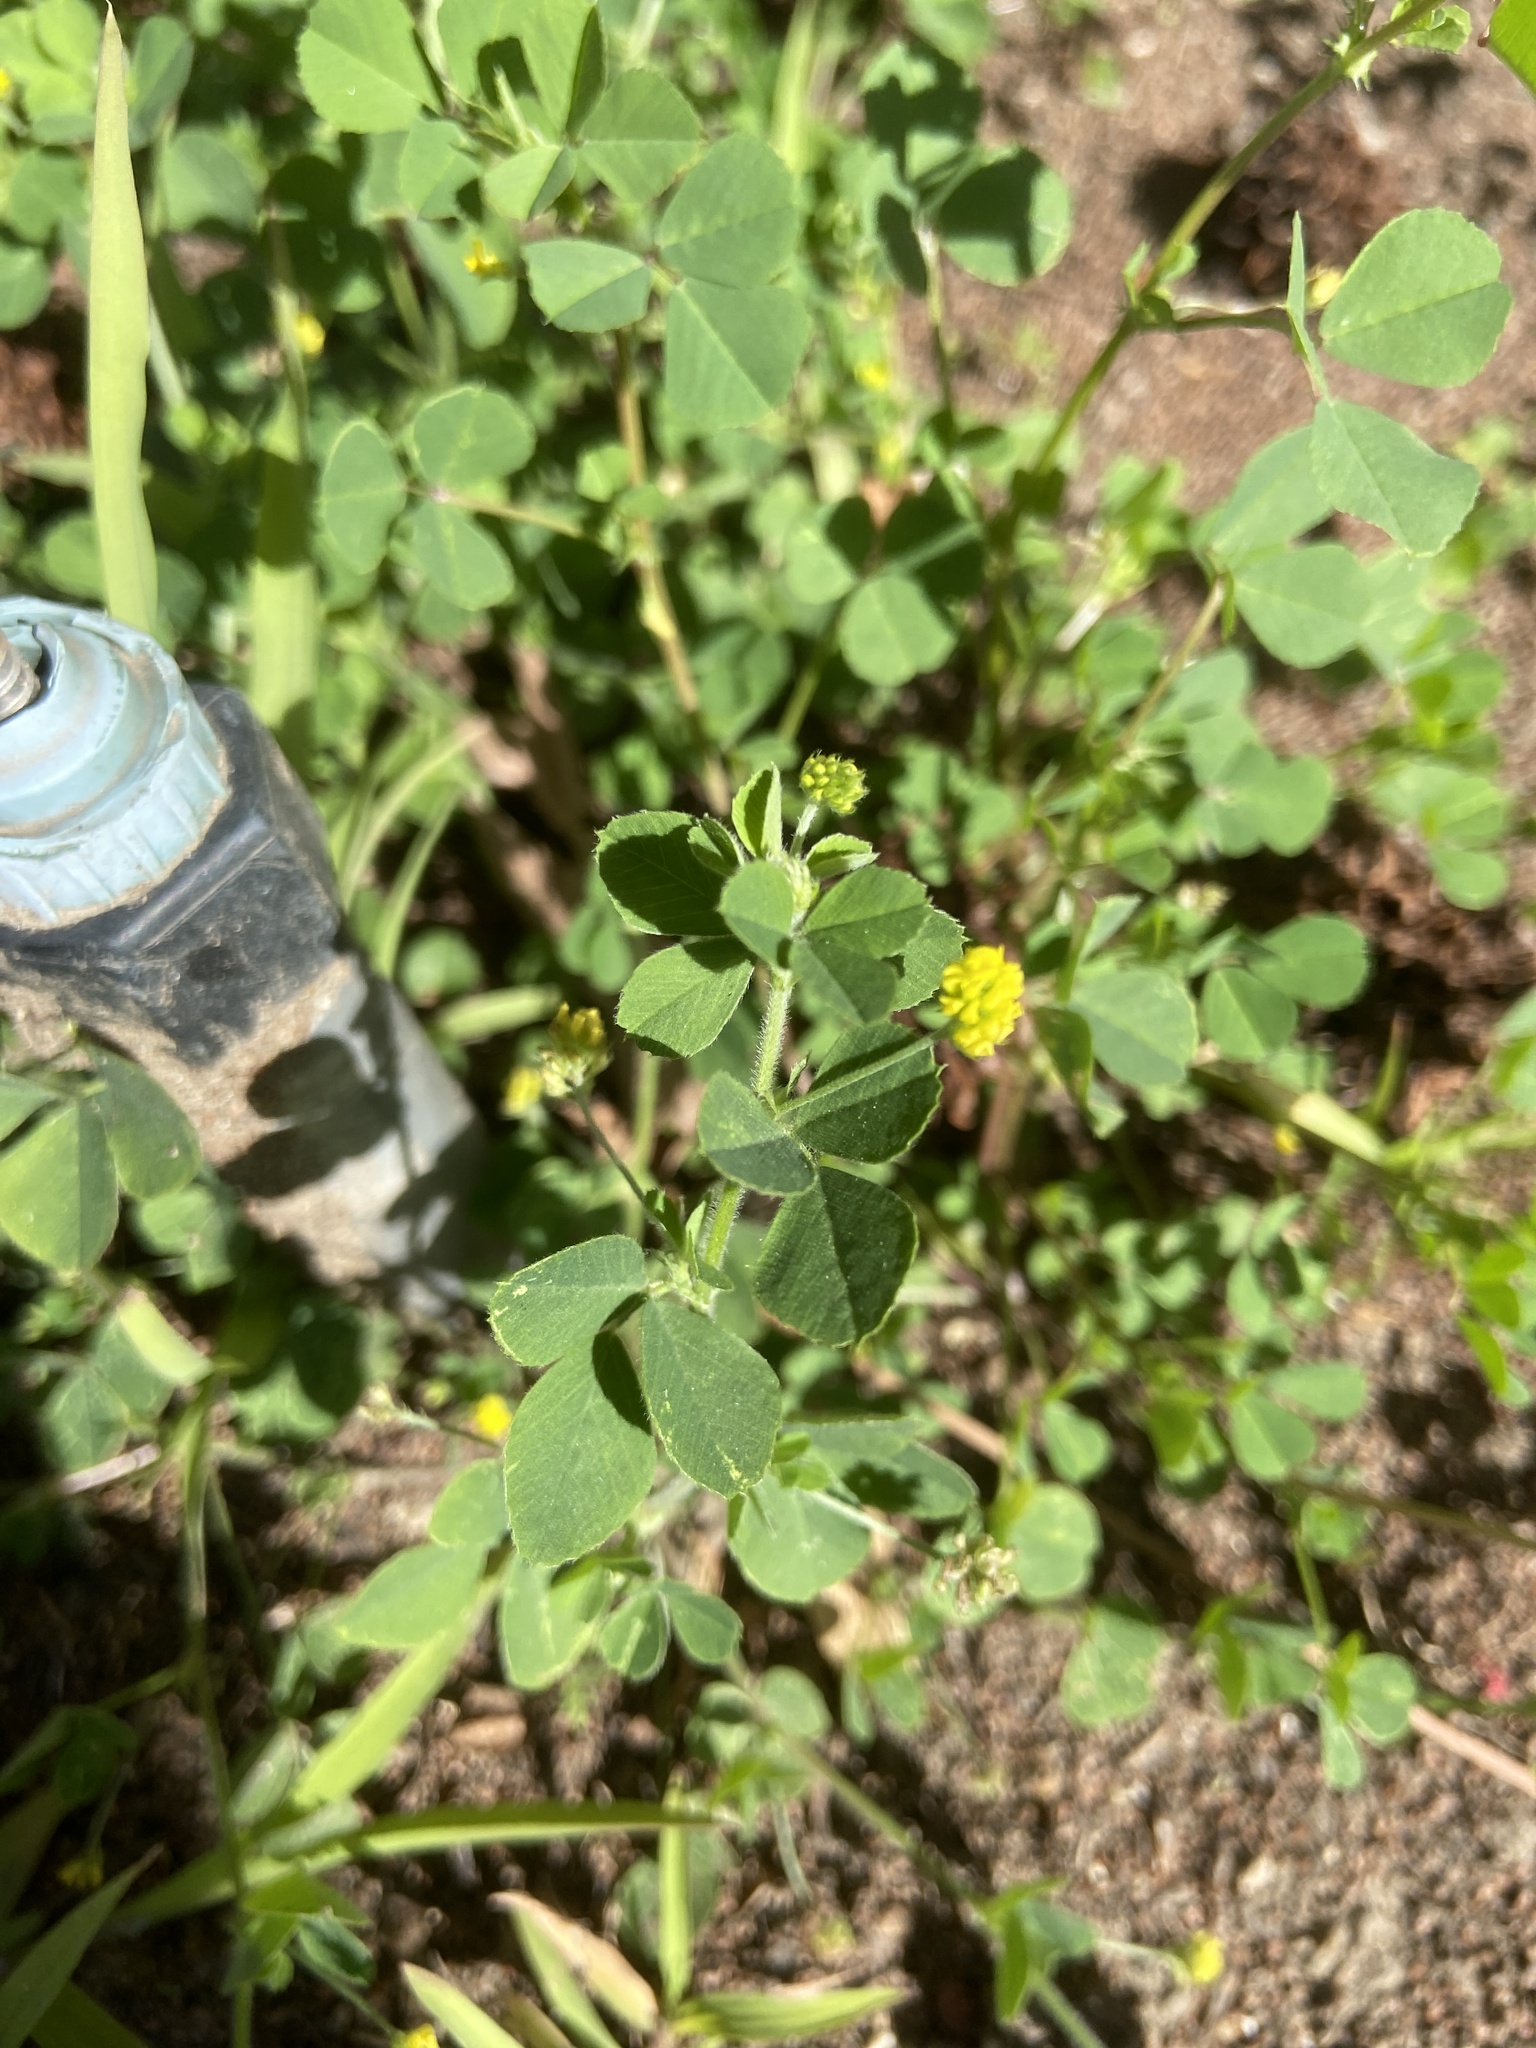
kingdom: Plantae
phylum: Tracheophyta
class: Magnoliopsida
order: Fabales
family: Fabaceae
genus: Medicago
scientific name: Medicago lupulina
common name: Black medick
